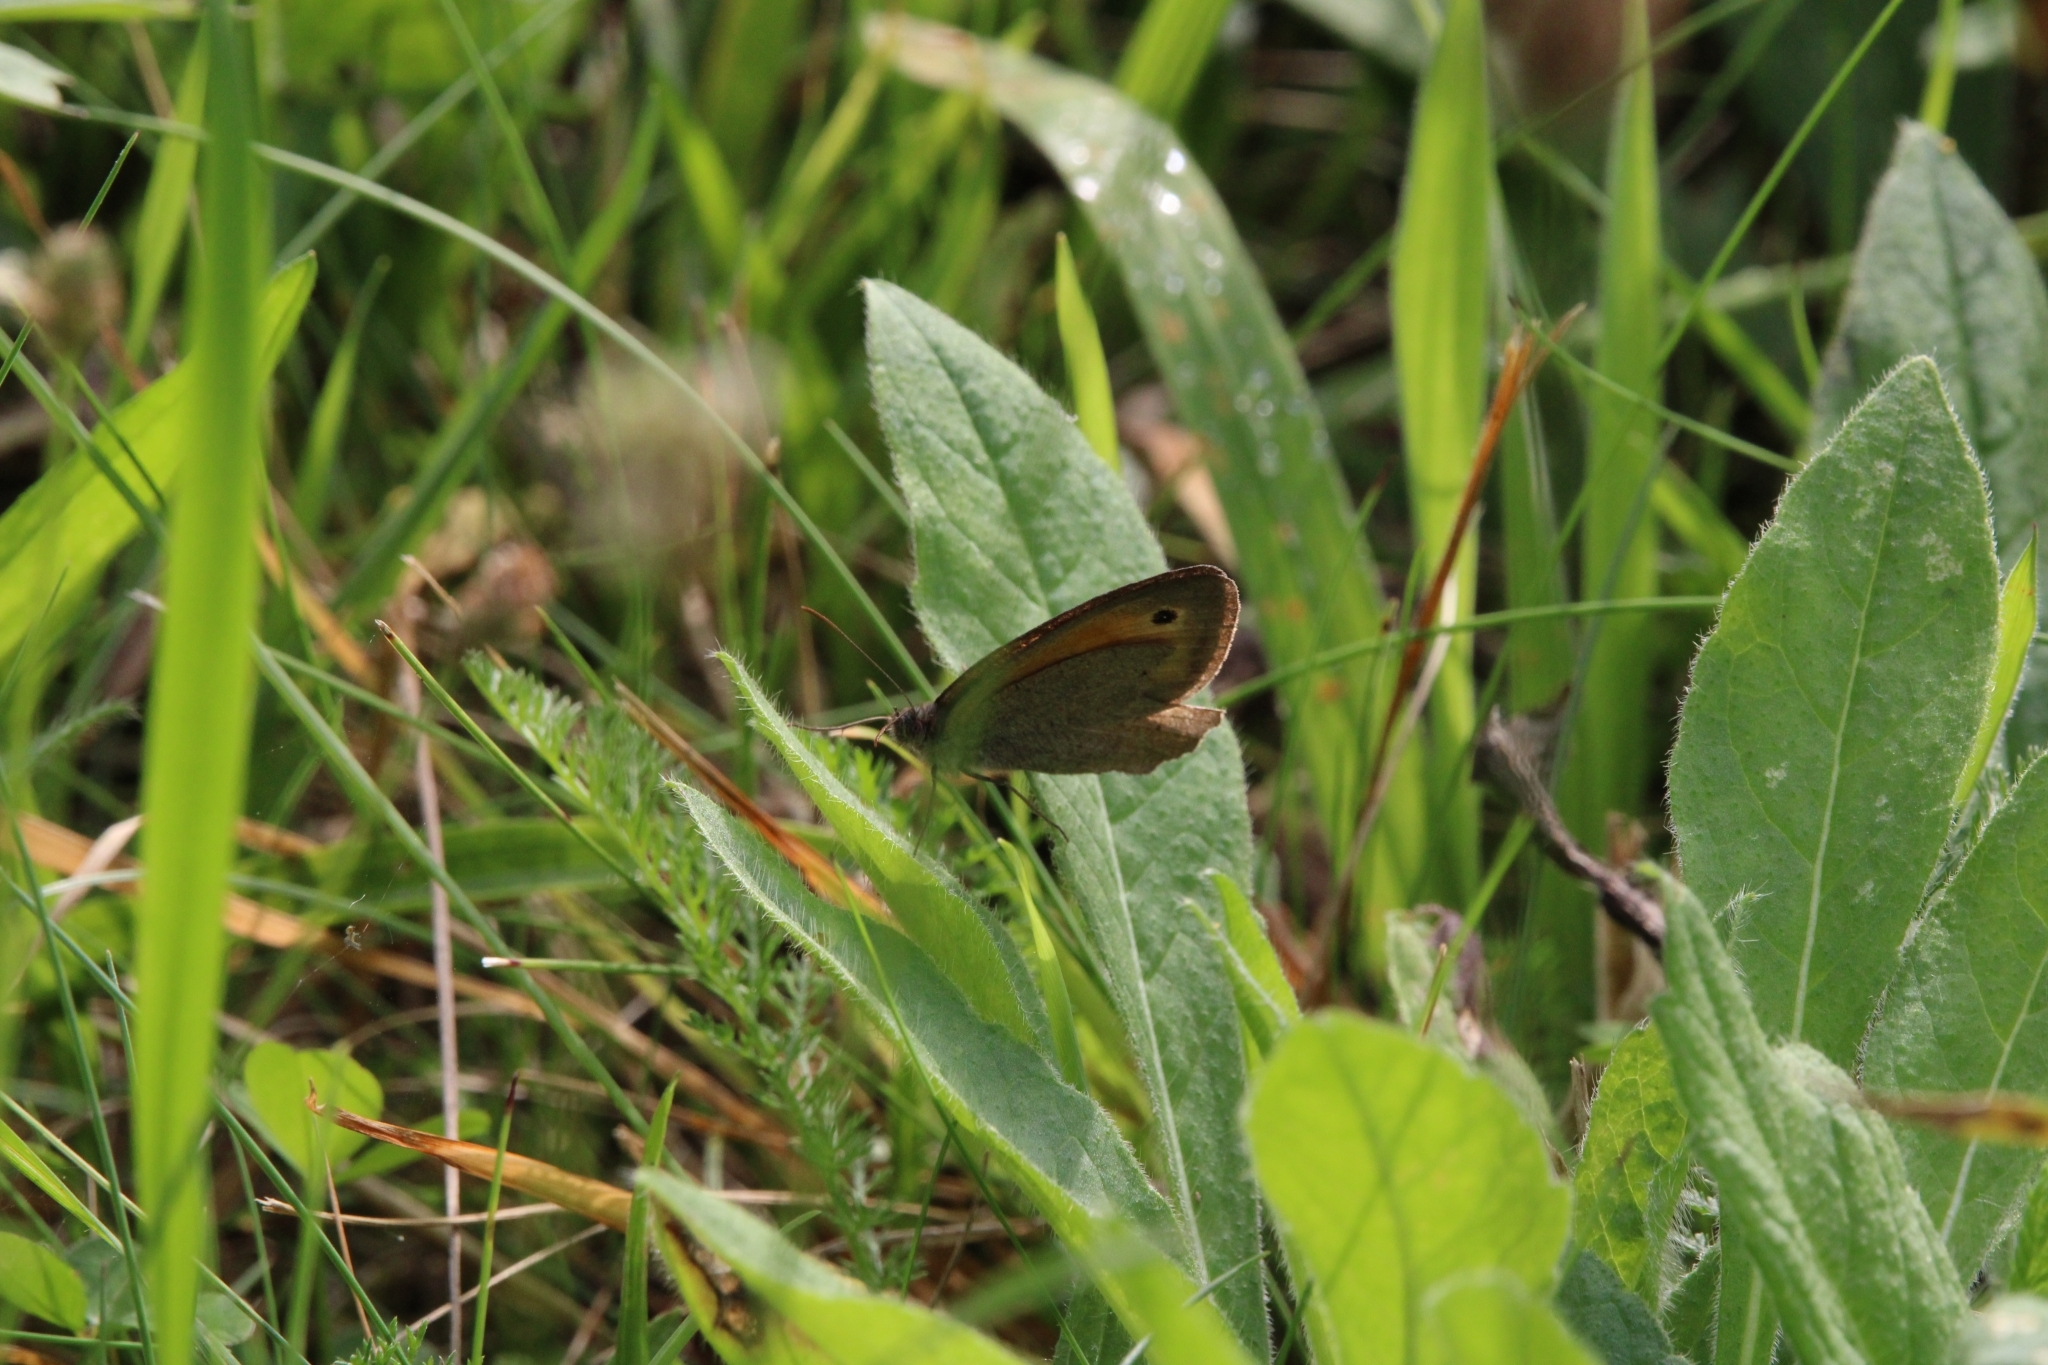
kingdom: Animalia
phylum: Arthropoda
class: Insecta
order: Lepidoptera
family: Nymphalidae
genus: Maniola
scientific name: Maniola jurtina
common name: Meadow brown
